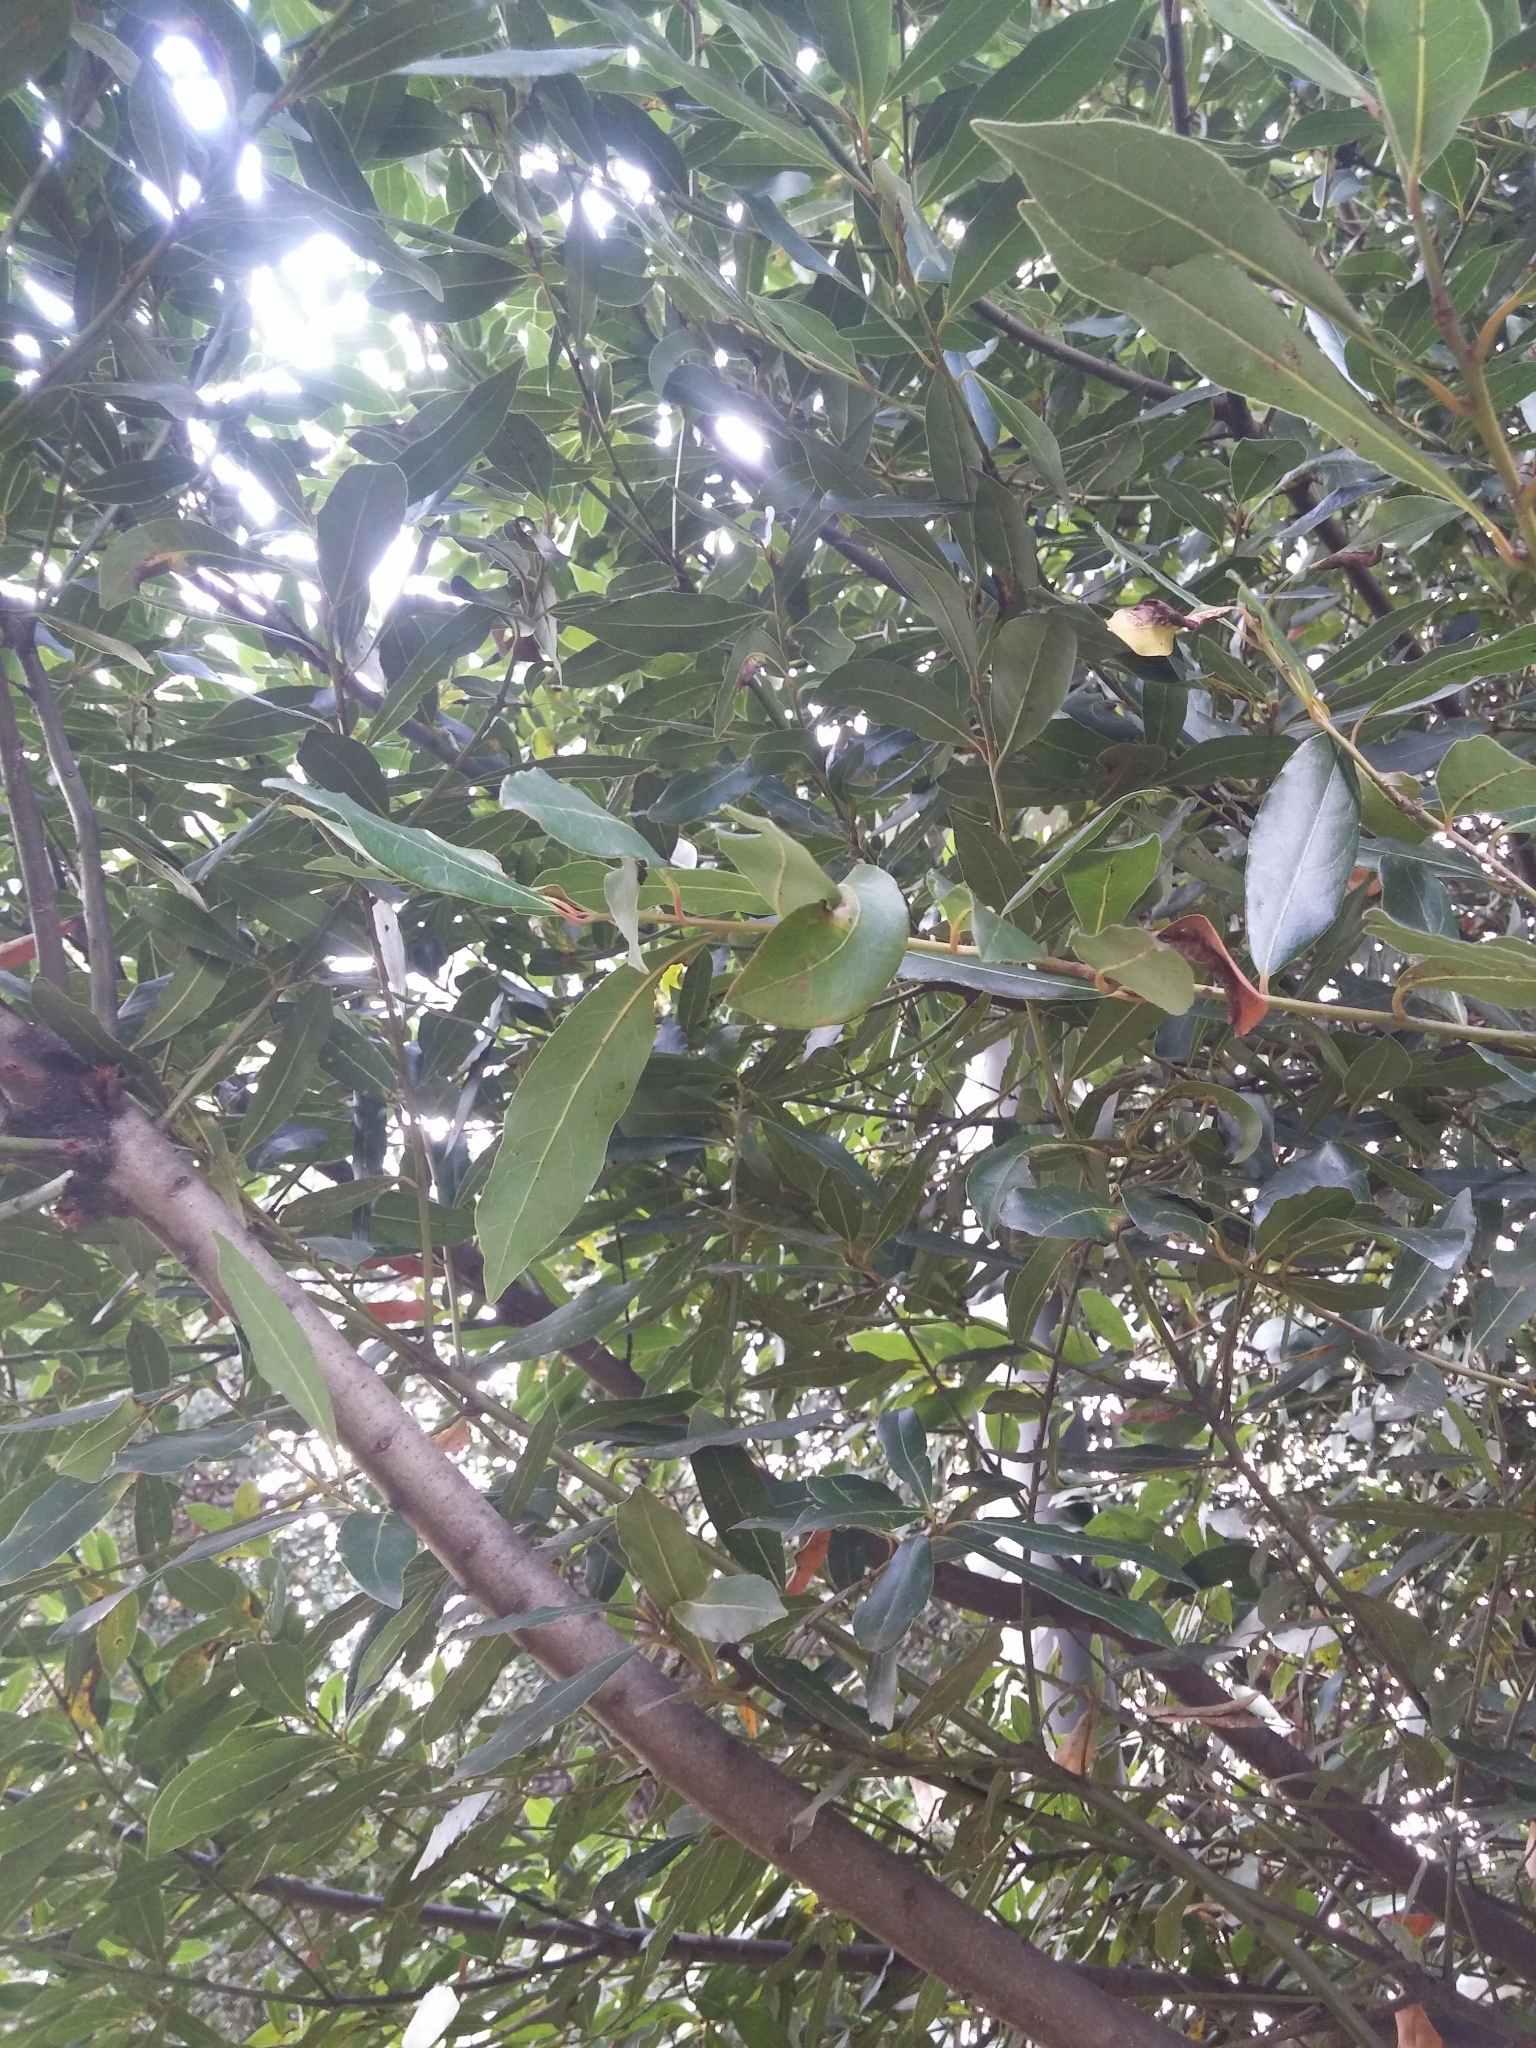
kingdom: Plantae
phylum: Tracheophyta
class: Magnoliopsida
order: Laurales
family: Lauraceae
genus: Laurus
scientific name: Laurus nobilis
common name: Bay
